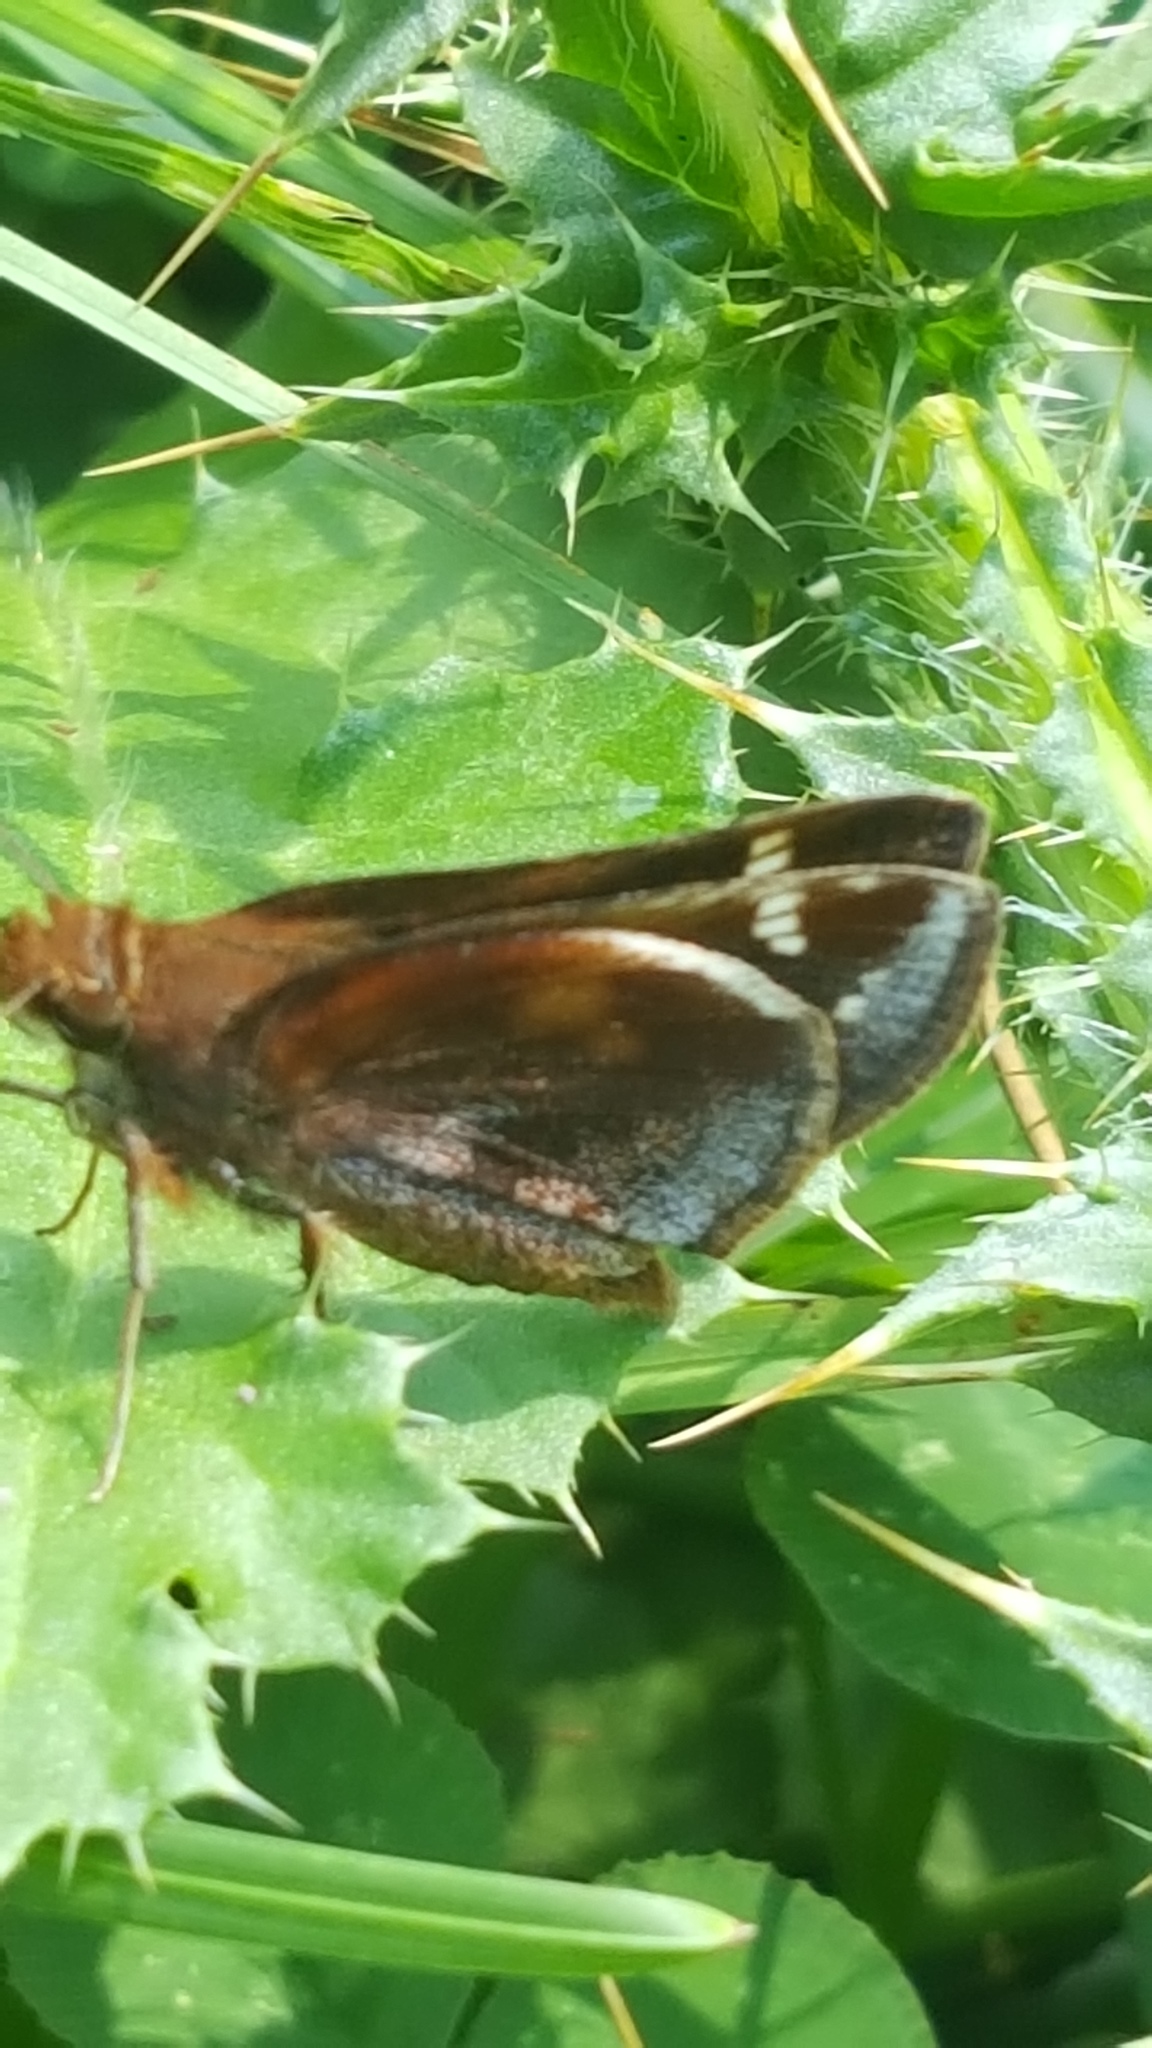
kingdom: Animalia
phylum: Arthropoda
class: Insecta
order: Lepidoptera
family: Hesperiidae
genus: Lon
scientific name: Lon zabulon
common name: Zabulon skipper
